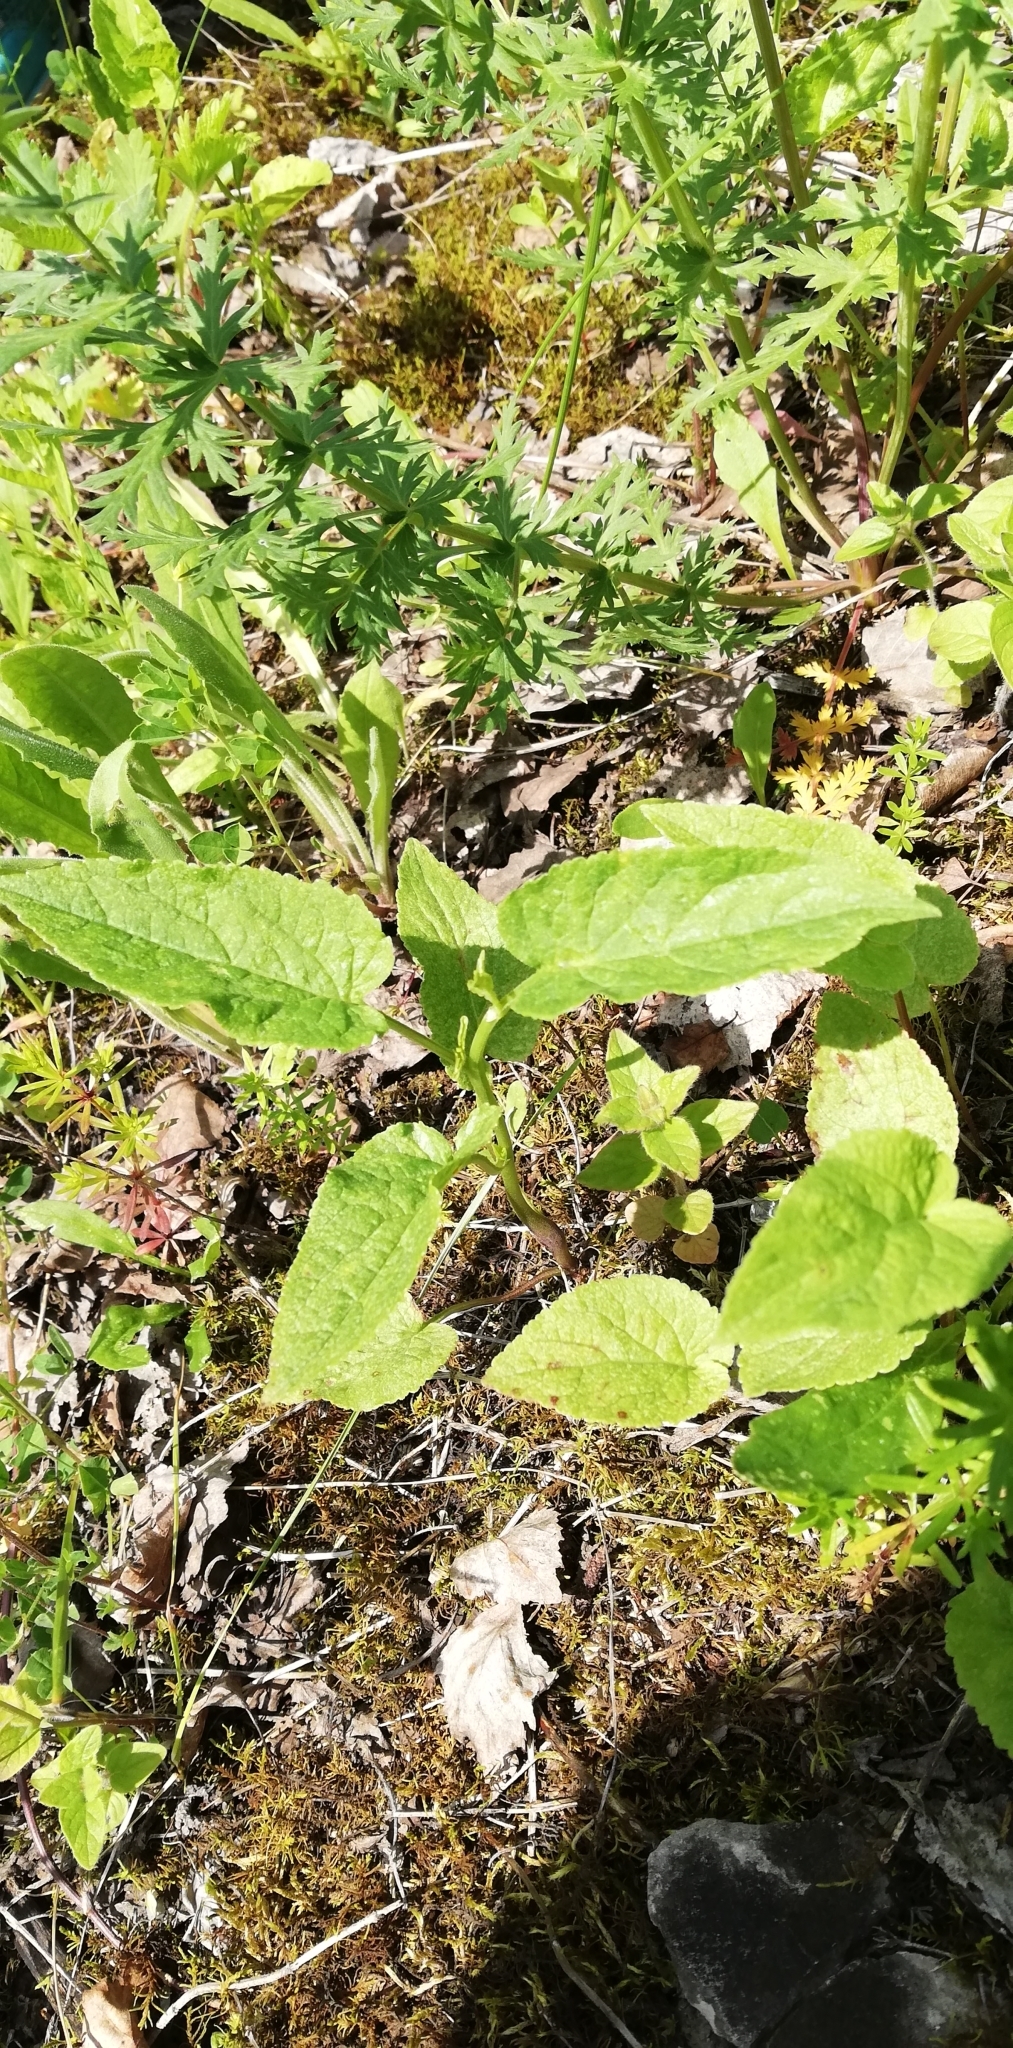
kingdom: Plantae
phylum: Tracheophyta
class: Magnoliopsida
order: Asterales
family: Campanulaceae
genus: Campanula
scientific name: Campanula rapunculoides
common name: Creeping bellflower
